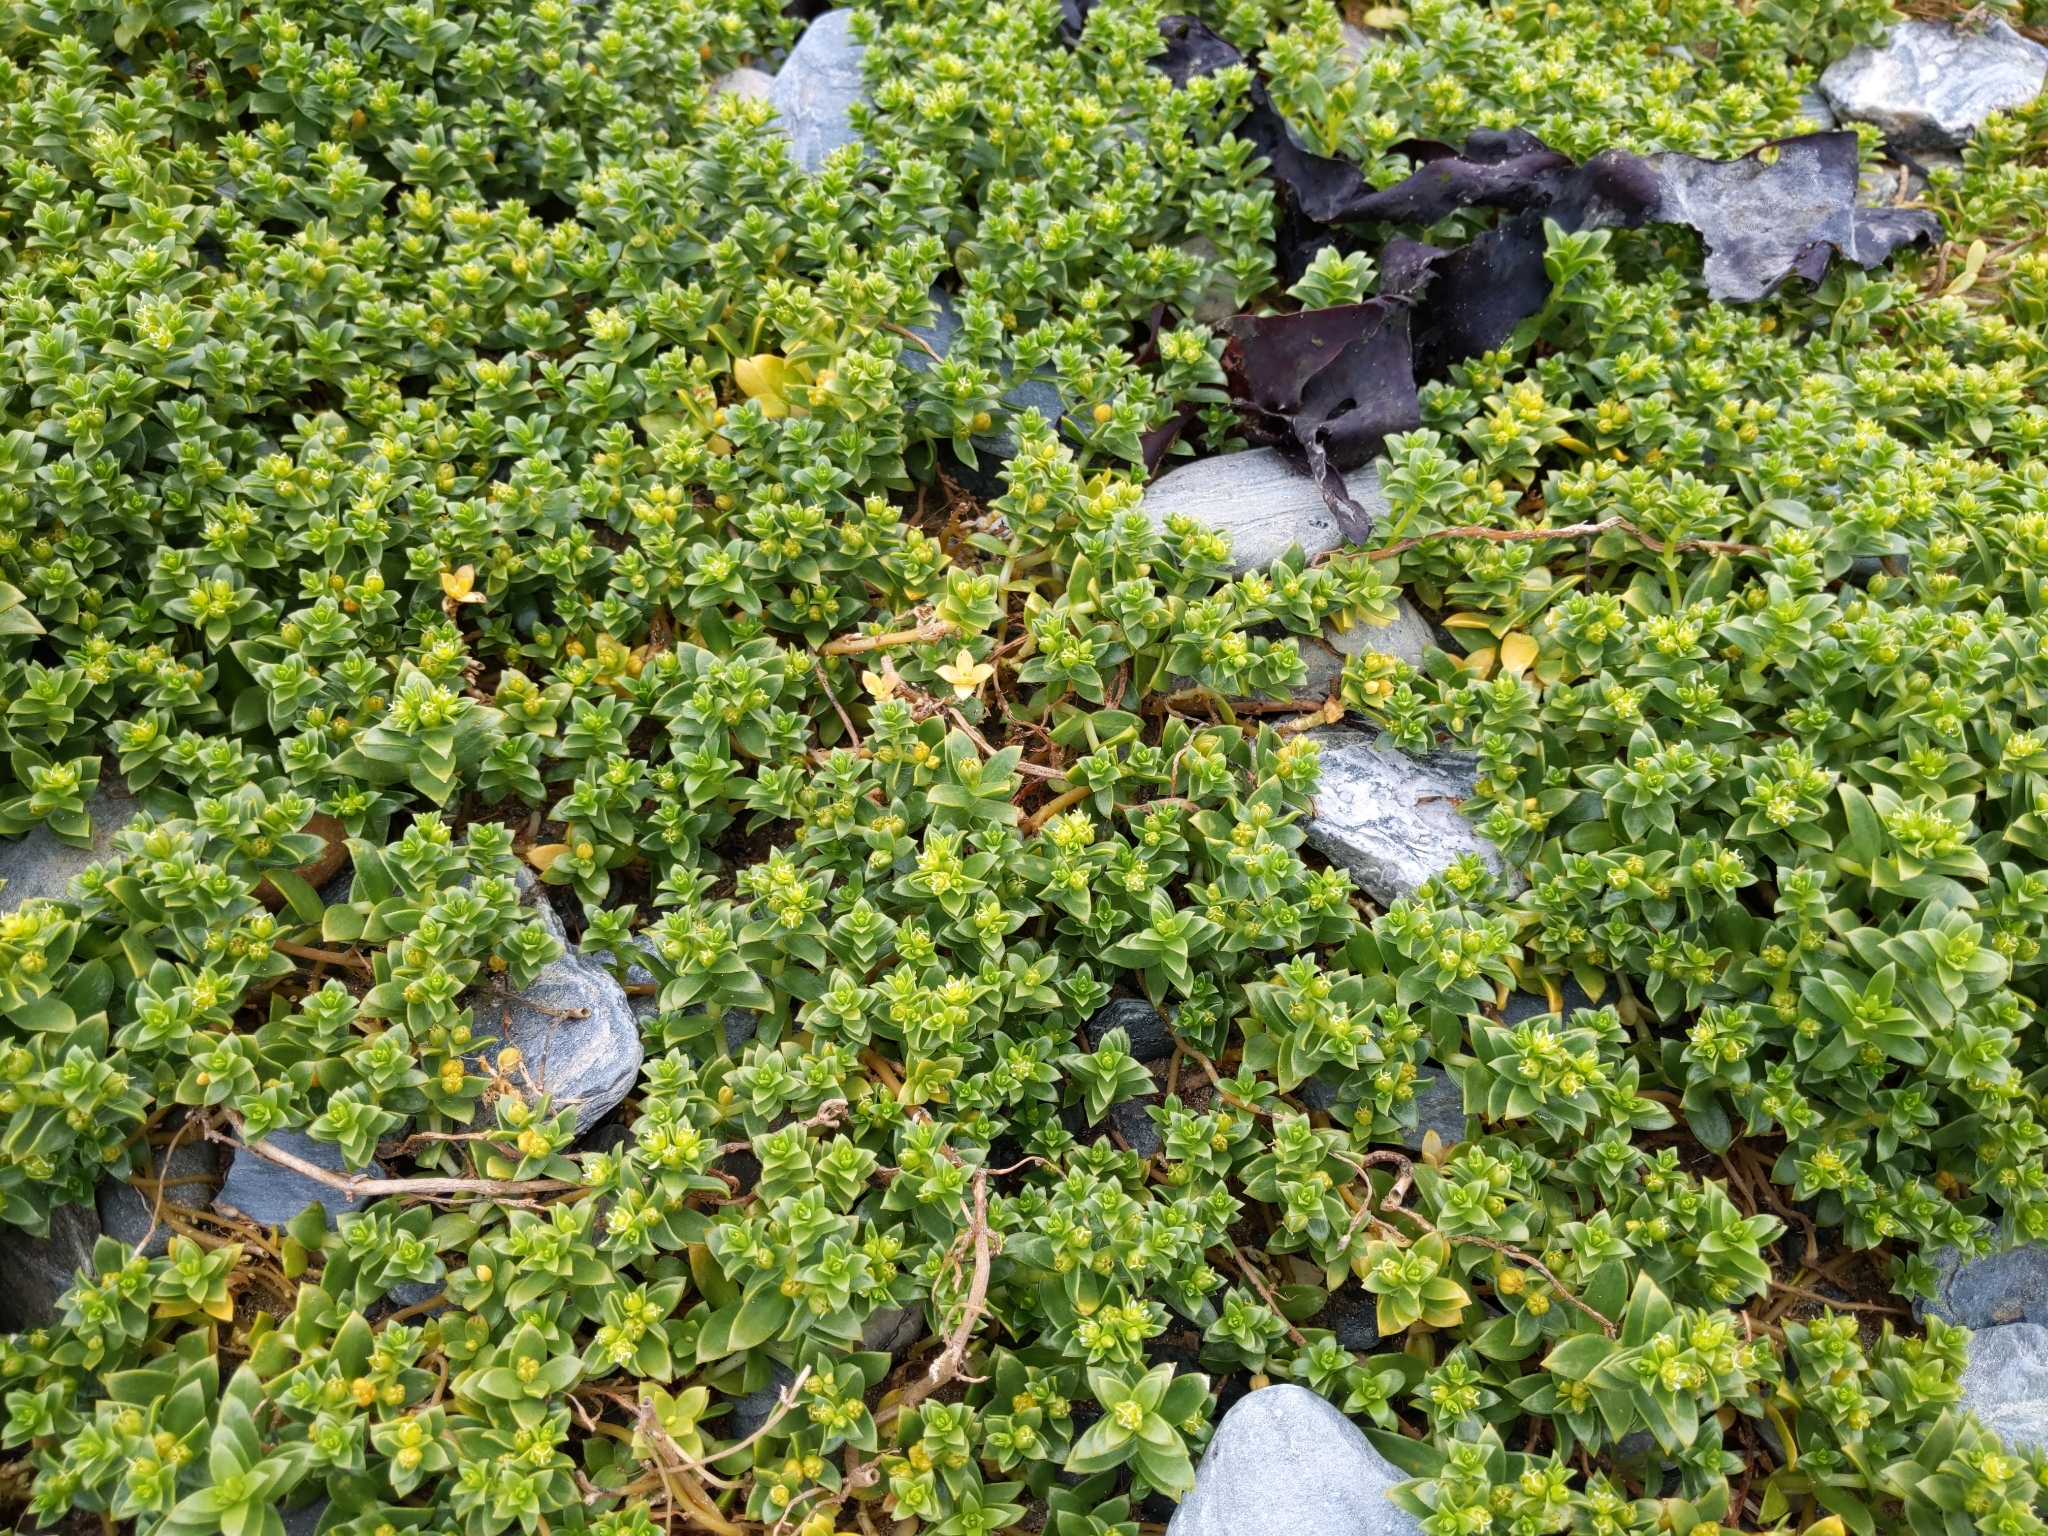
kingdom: Plantae
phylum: Tracheophyta
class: Magnoliopsida
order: Caryophyllales
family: Caryophyllaceae
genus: Honckenya
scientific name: Honckenya peploides
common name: Sea sandwort
